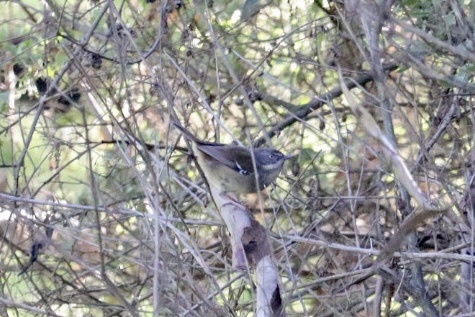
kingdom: Animalia
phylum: Chordata
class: Aves
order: Passeriformes
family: Acanthizidae
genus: Sericornis
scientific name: Sericornis frontalis
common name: White-browed scrubwren
